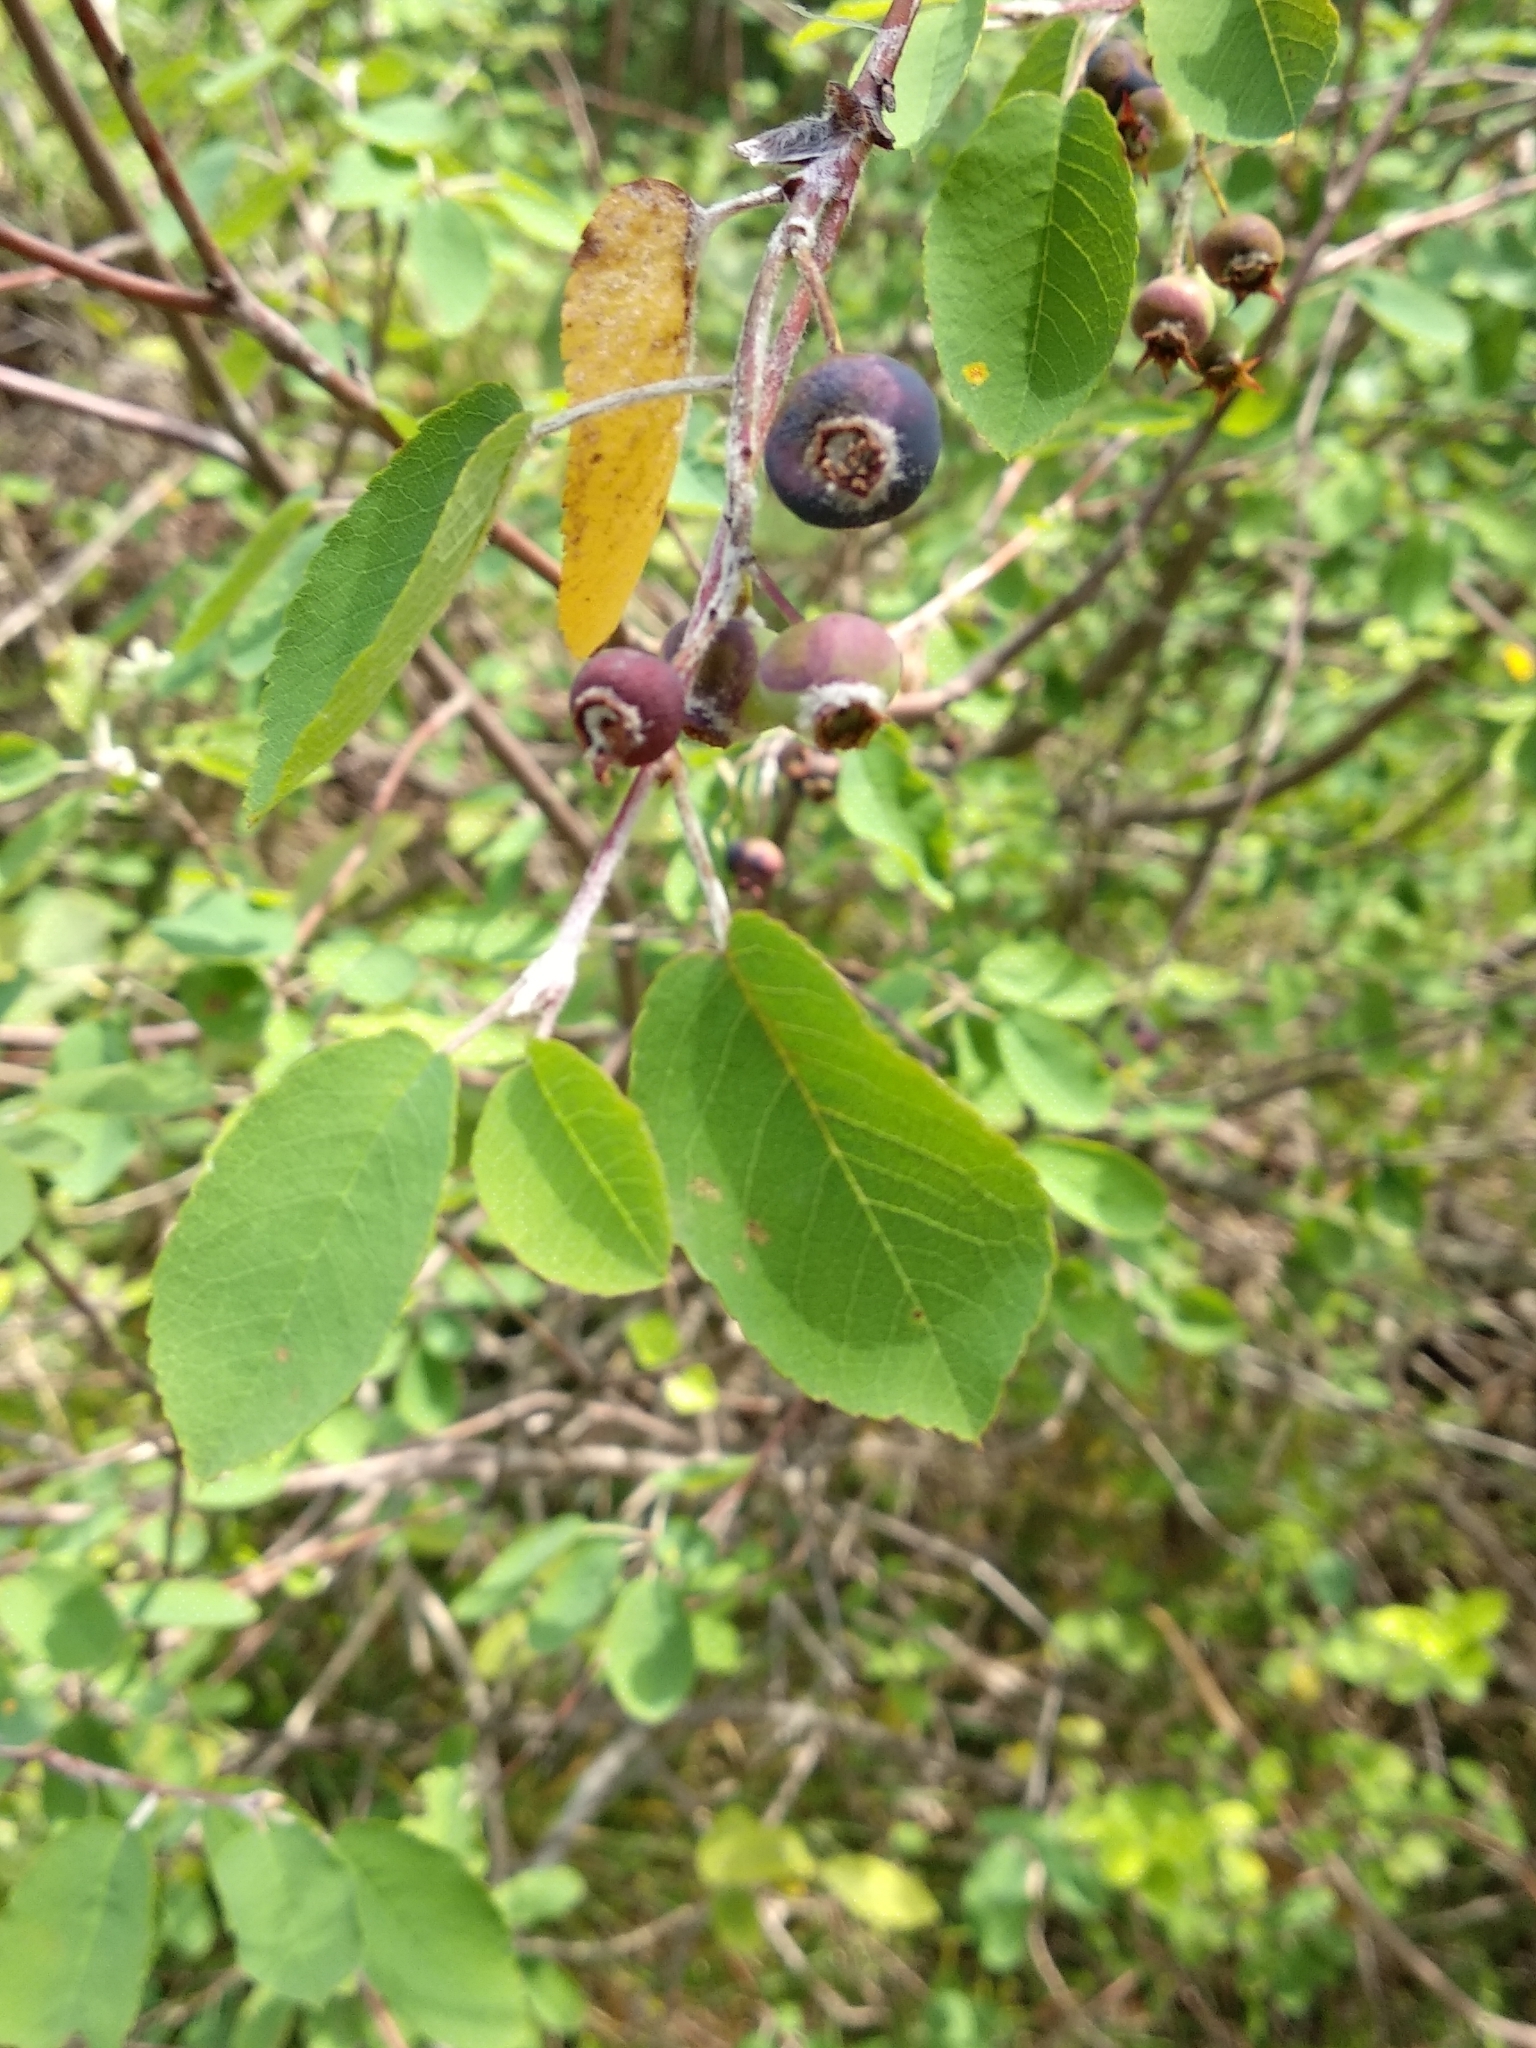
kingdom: Plantae
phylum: Tracheophyta
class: Magnoliopsida
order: Rosales
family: Rosaceae
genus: Amelanchier
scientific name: Amelanchier ovalis
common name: Serviceberry
